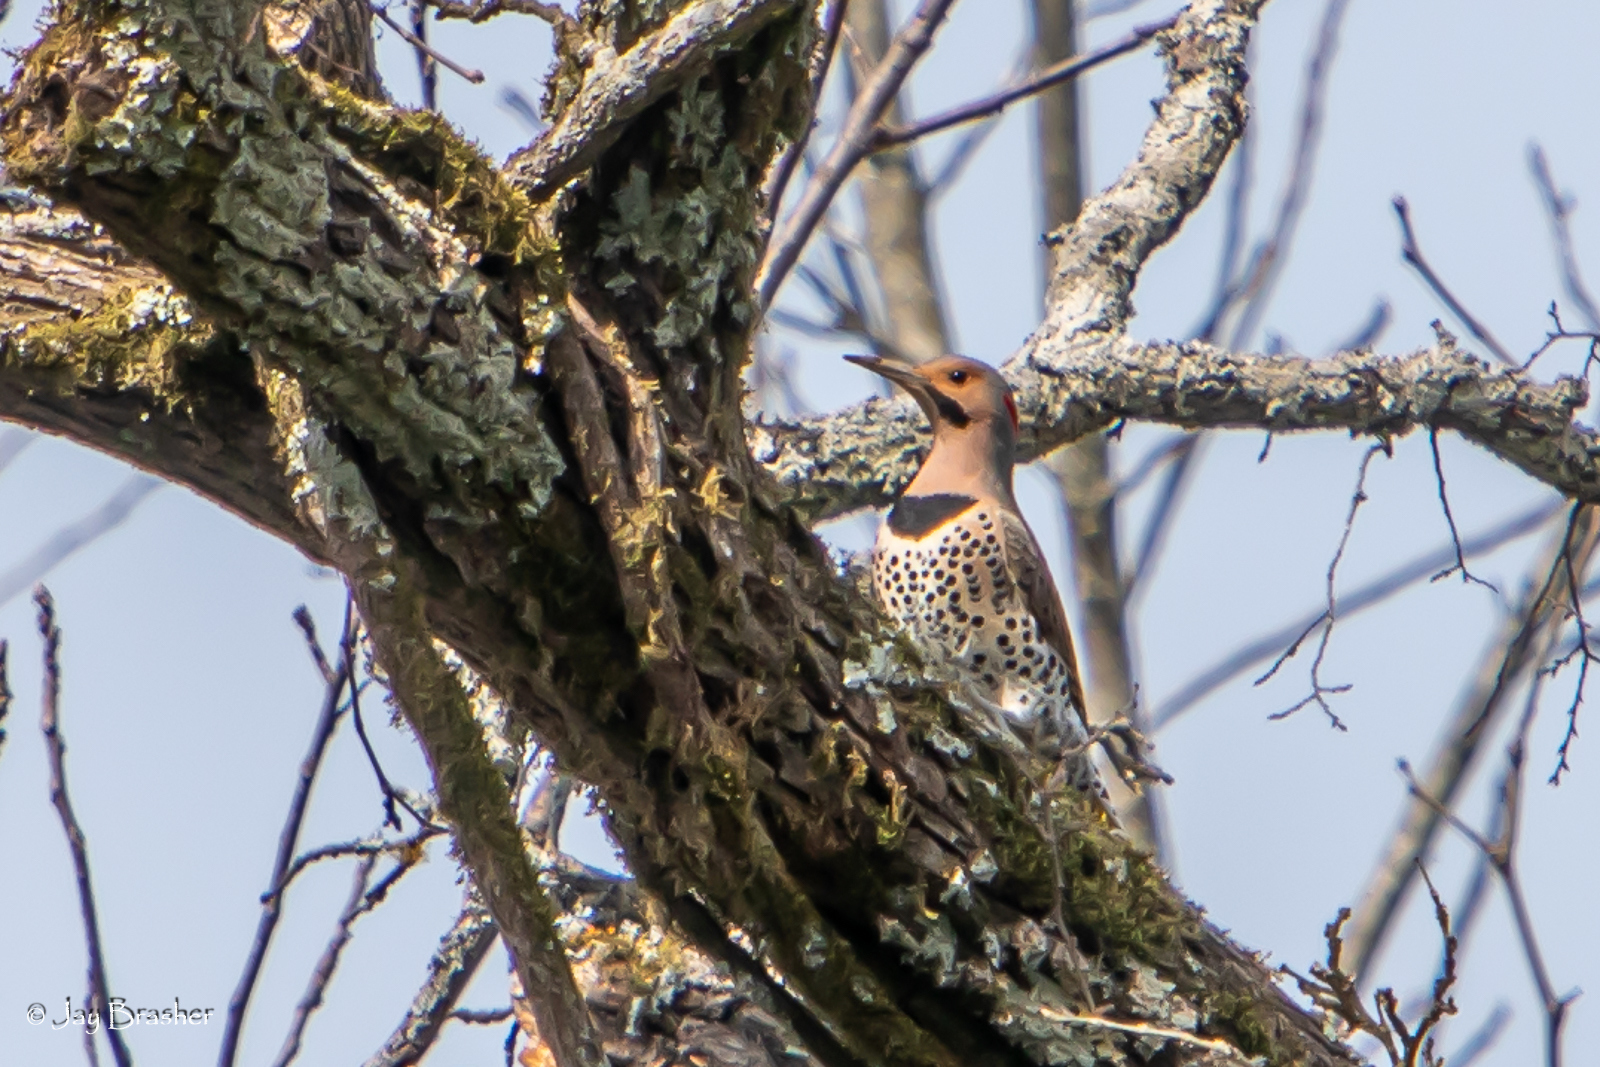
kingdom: Animalia
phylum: Chordata
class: Aves
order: Piciformes
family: Picidae
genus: Colaptes
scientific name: Colaptes auratus
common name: Northern flicker
